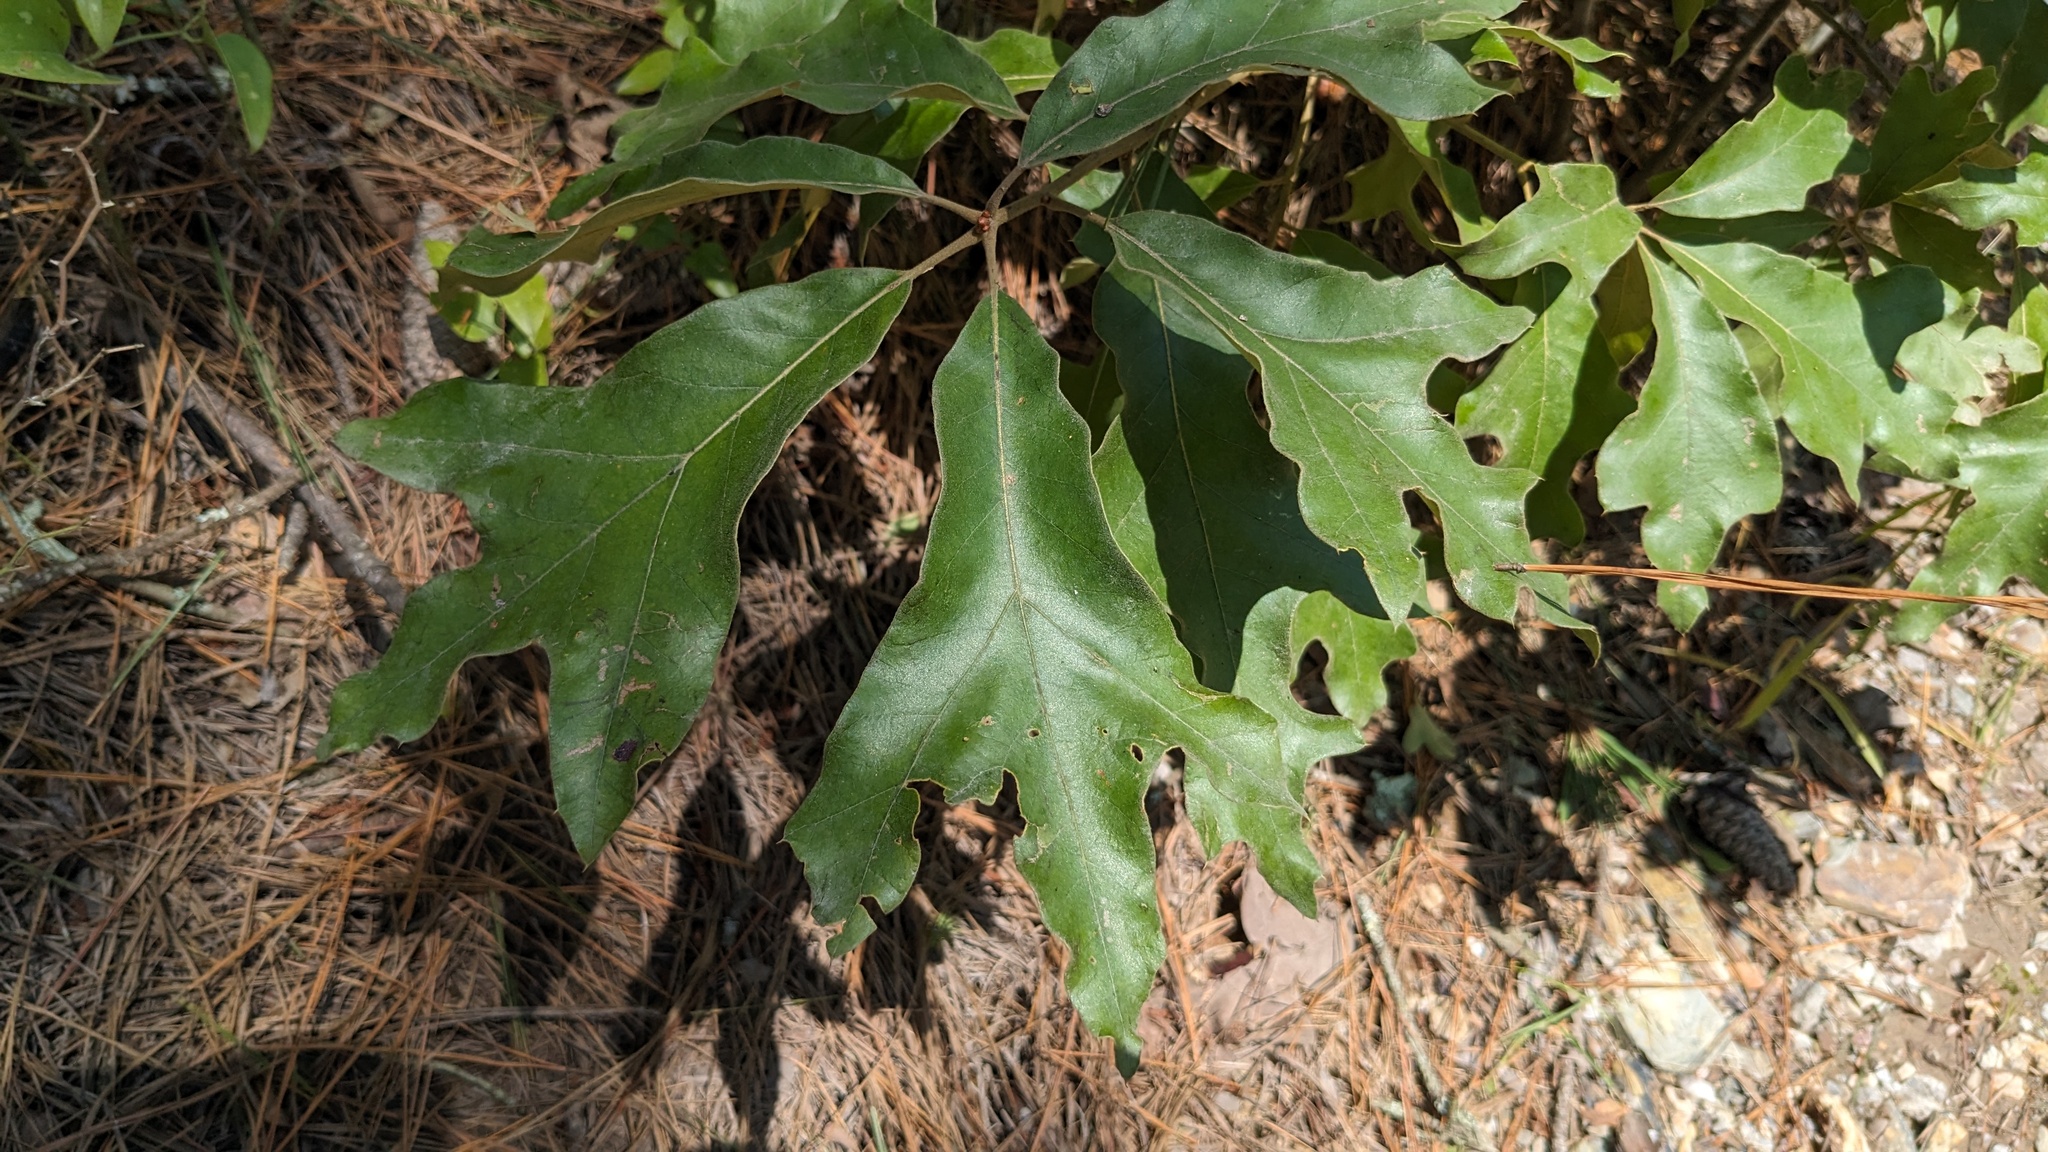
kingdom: Plantae
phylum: Tracheophyta
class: Magnoliopsida
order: Fagales
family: Fagaceae
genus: Quercus
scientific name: Quercus falcata
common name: Southern red oak
